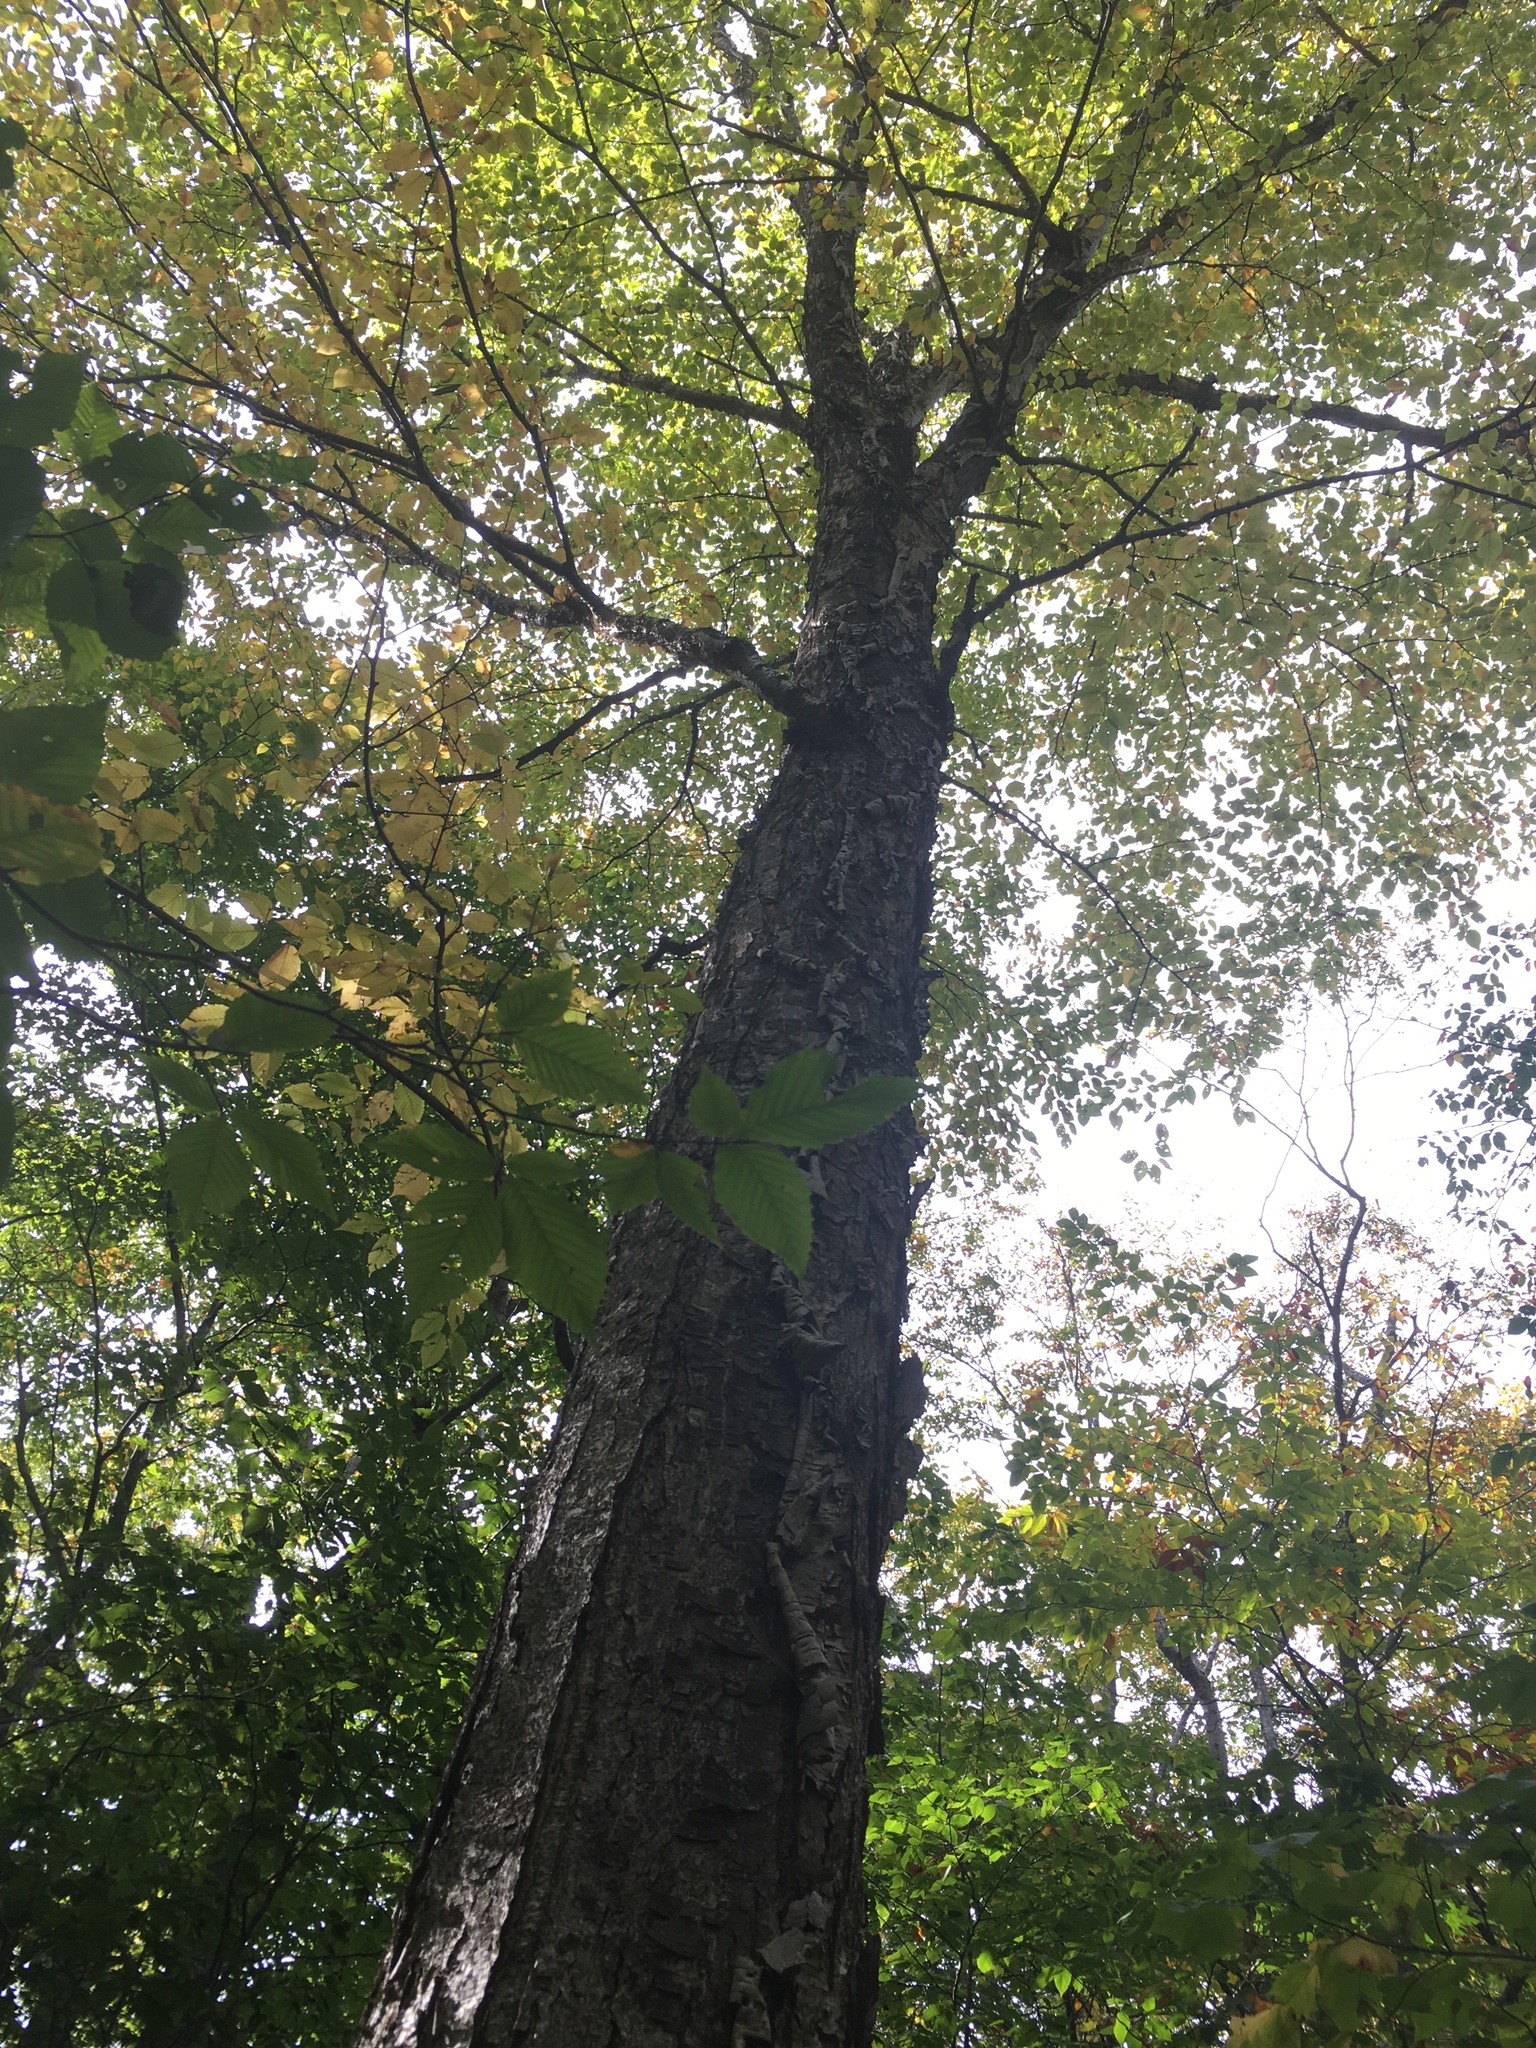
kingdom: Plantae
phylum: Tracheophyta
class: Magnoliopsida
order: Fagales
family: Betulaceae
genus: Betula
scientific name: Betula alleghaniensis
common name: Yellow birch
